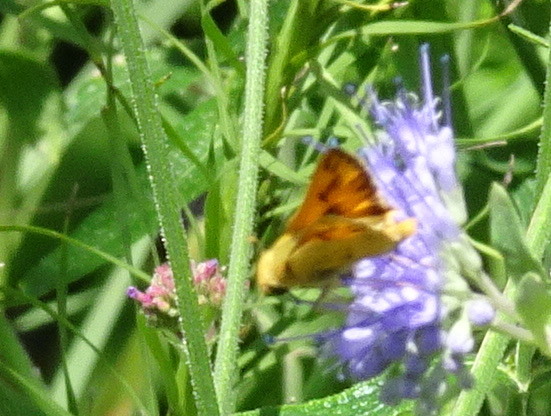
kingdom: Animalia
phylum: Arthropoda
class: Insecta
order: Lepidoptera
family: Hesperiidae
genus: Hylephila
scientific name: Hylephila phyleus
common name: Fiery skipper
